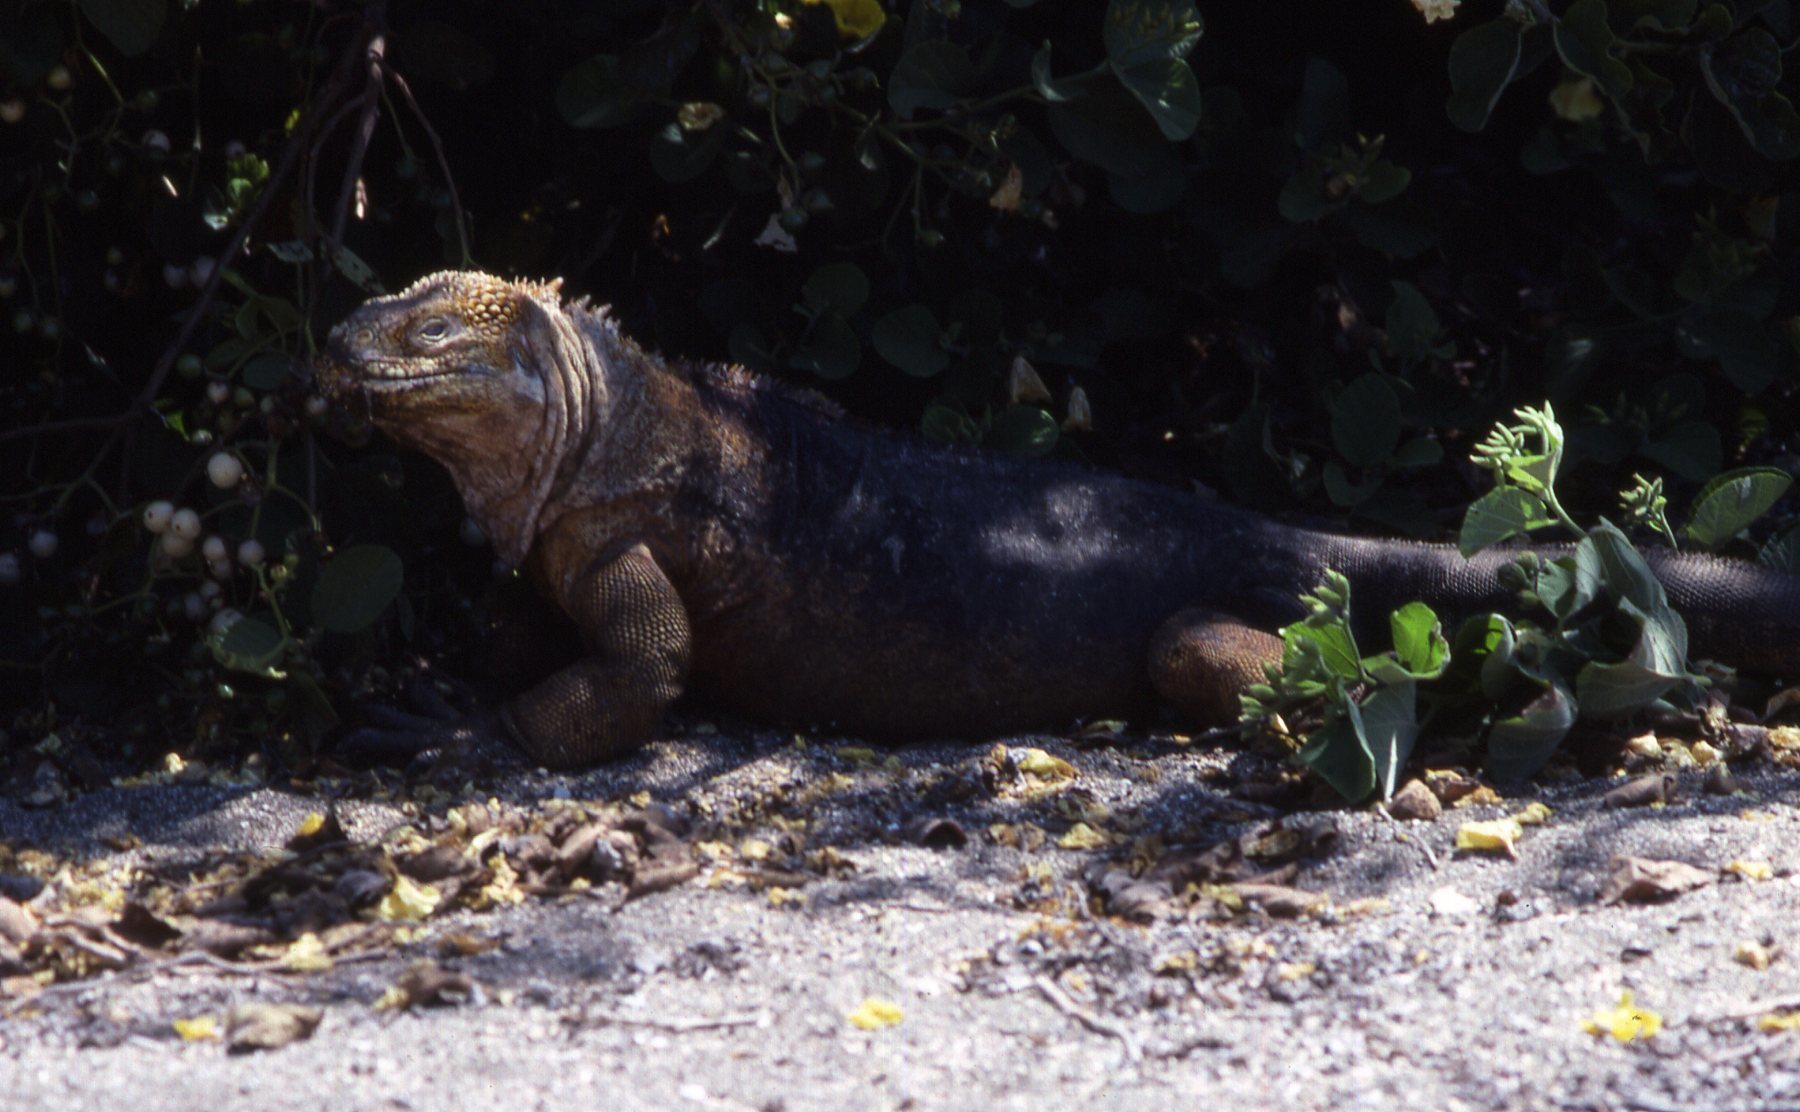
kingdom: Animalia
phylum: Chordata
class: Squamata
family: Iguanidae
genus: Conolophus
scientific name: Conolophus subcristatus
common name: Galapagos land iguana
